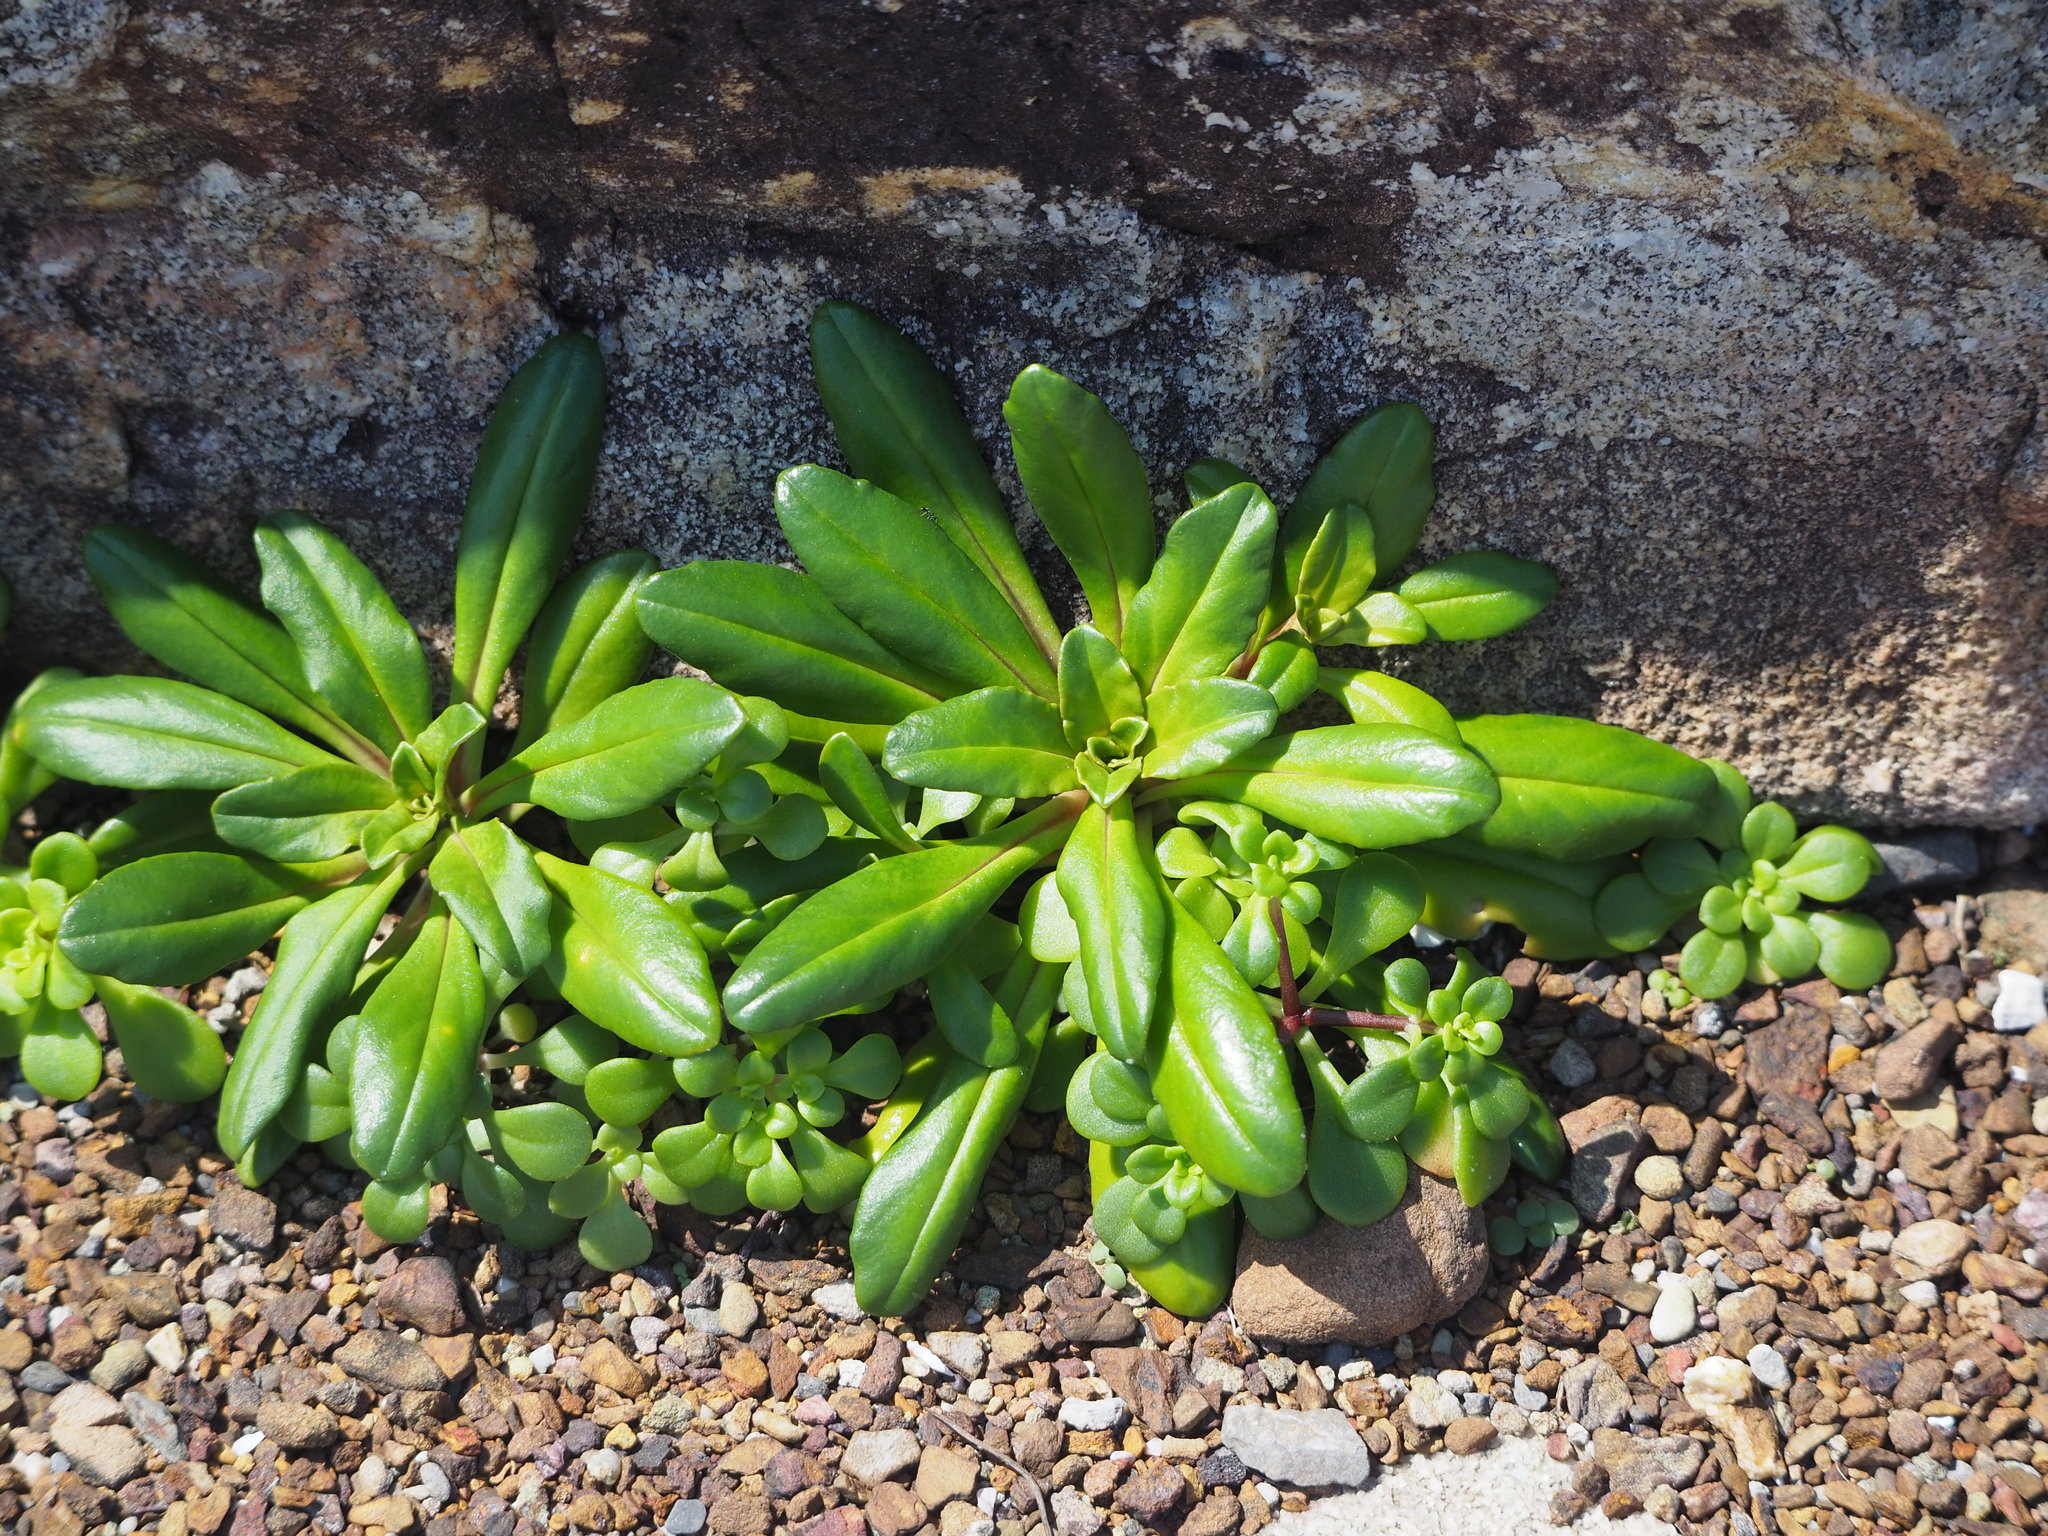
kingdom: Plantae
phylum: Tracheophyta
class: Magnoliopsida
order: Ericales
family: Primulaceae
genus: Lysimachia
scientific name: Lysimachia mauritiana
